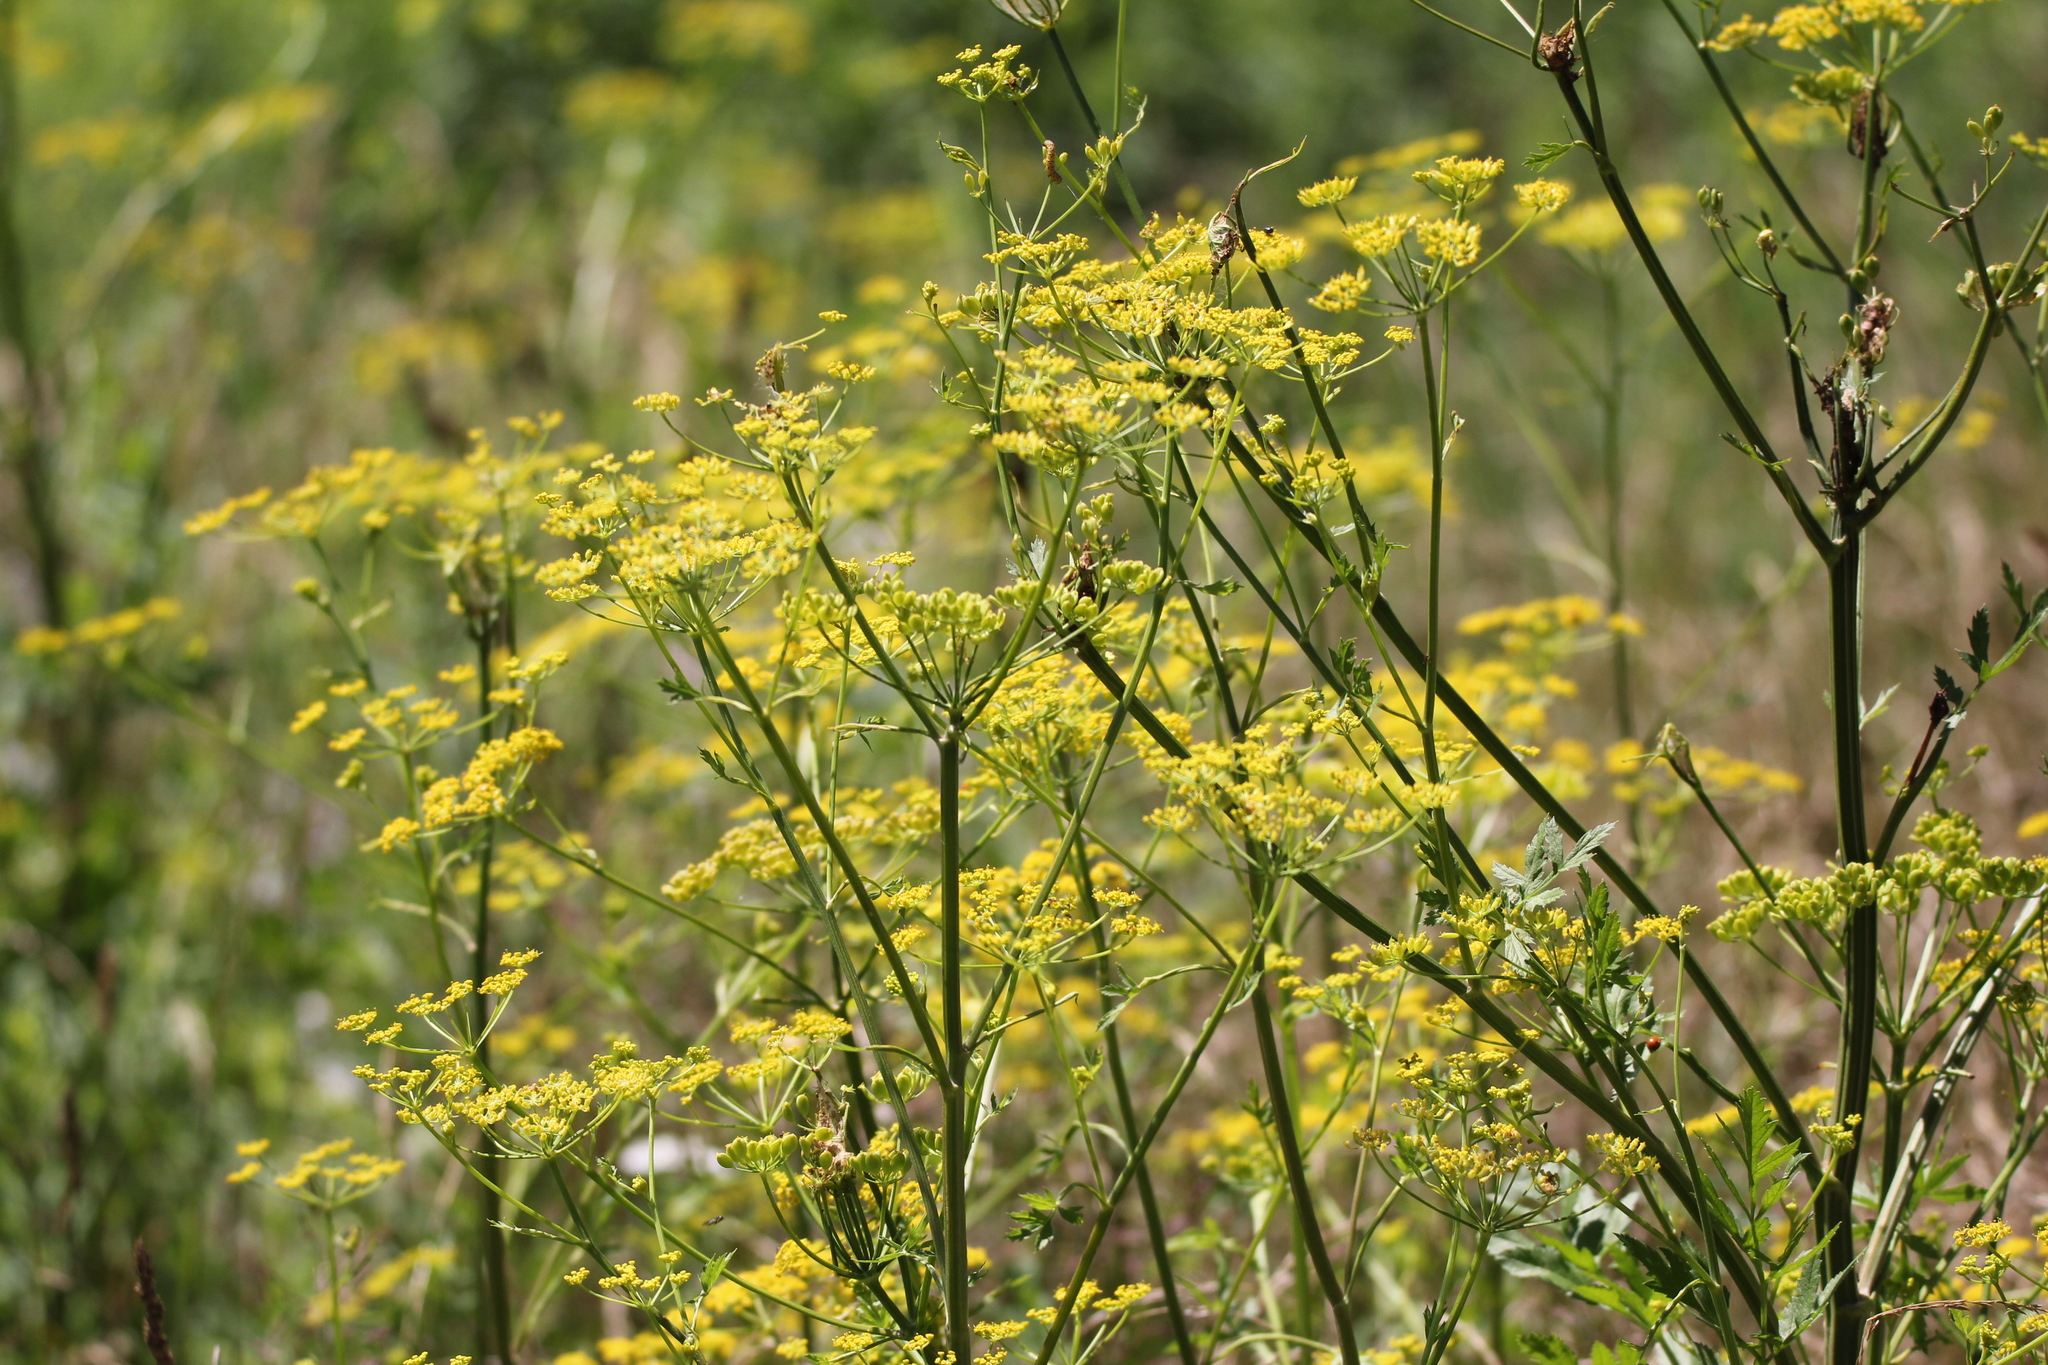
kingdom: Plantae
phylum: Tracheophyta
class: Magnoliopsida
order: Apiales
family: Apiaceae
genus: Pastinaca
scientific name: Pastinaca sativa
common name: Wild parsnip
